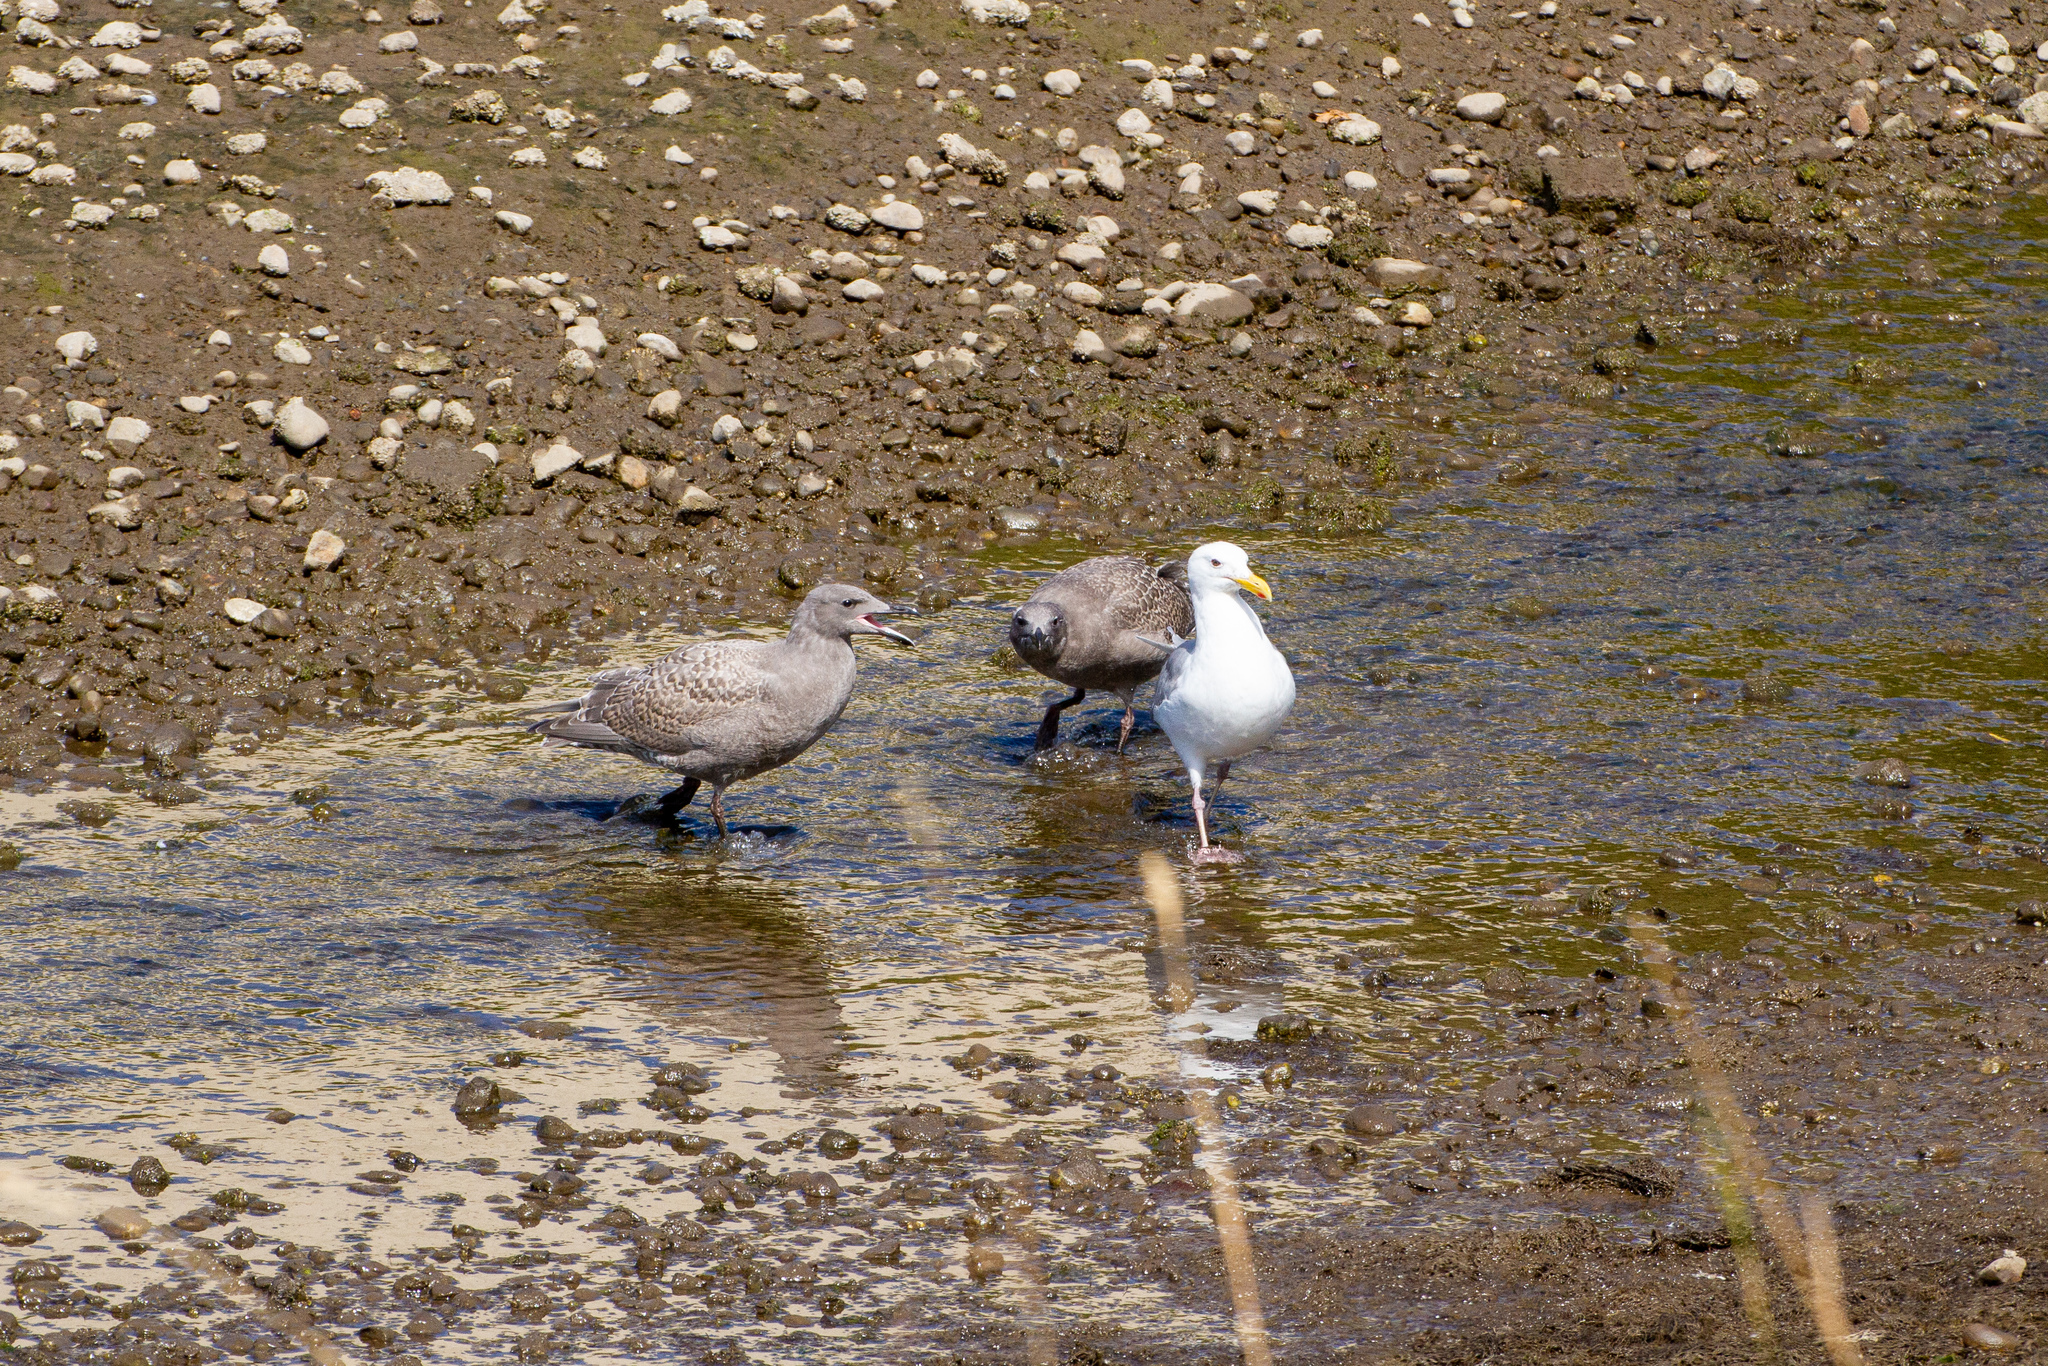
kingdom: Animalia
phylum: Chordata
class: Aves
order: Charadriiformes
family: Laridae
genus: Larus
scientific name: Larus glaucescens
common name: Glaucous-winged gull
